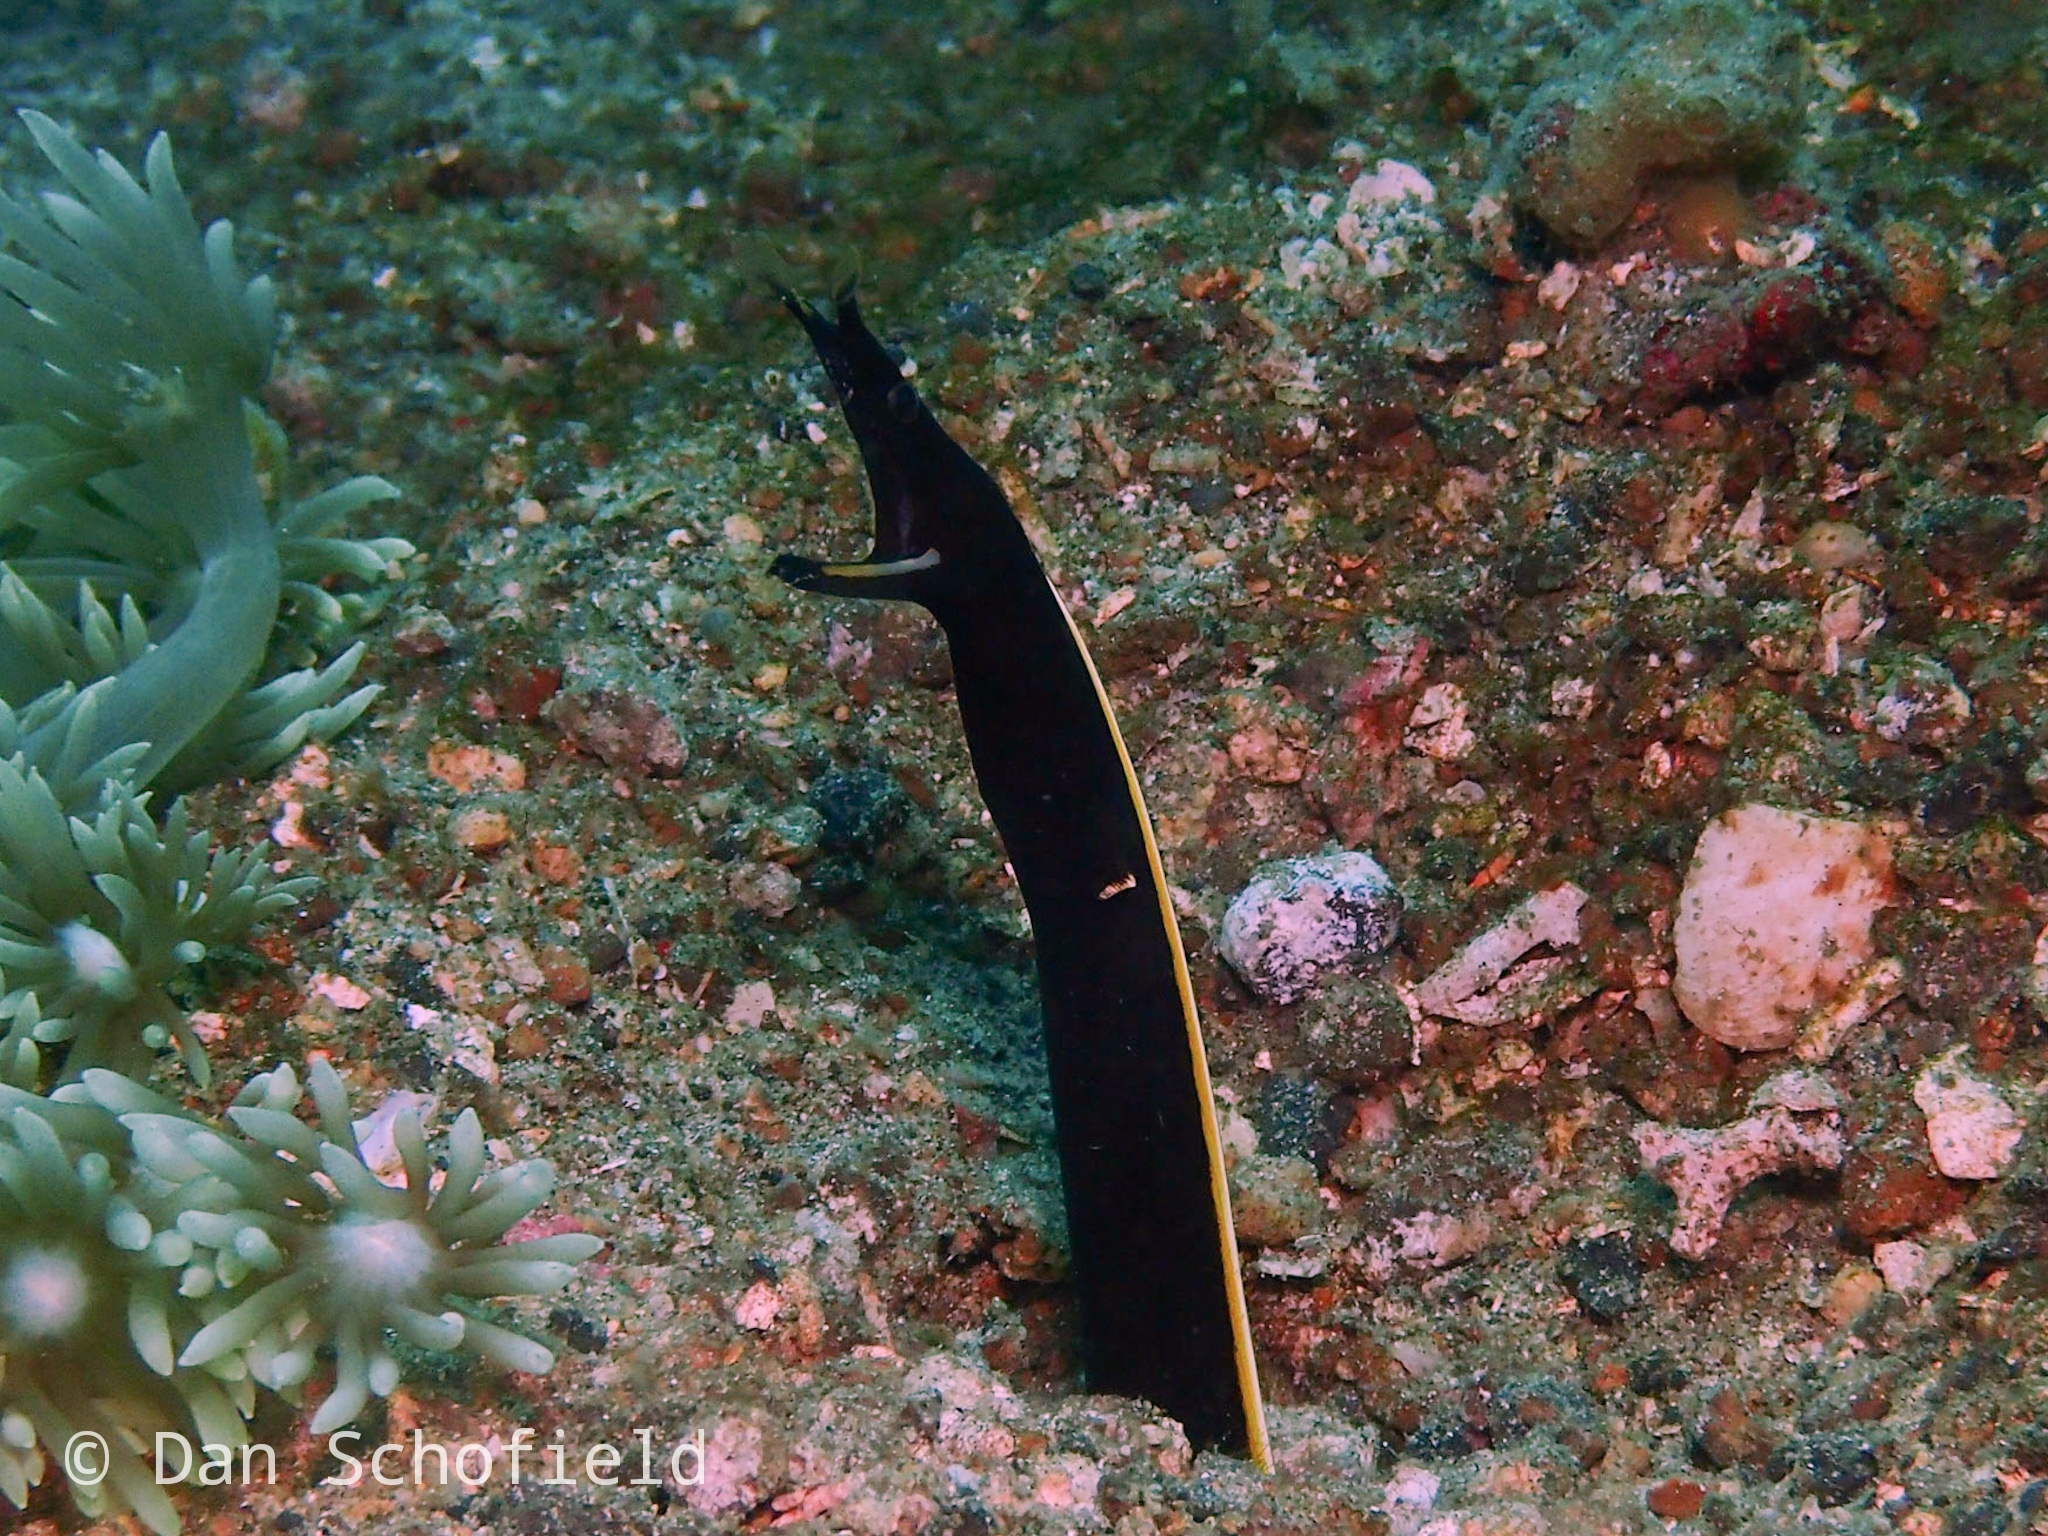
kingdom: Animalia
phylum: Chordata
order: Anguilliformes
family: Muraenidae
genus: Rhinomuraena
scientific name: Rhinomuraena quaesita
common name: Ribbon eel
